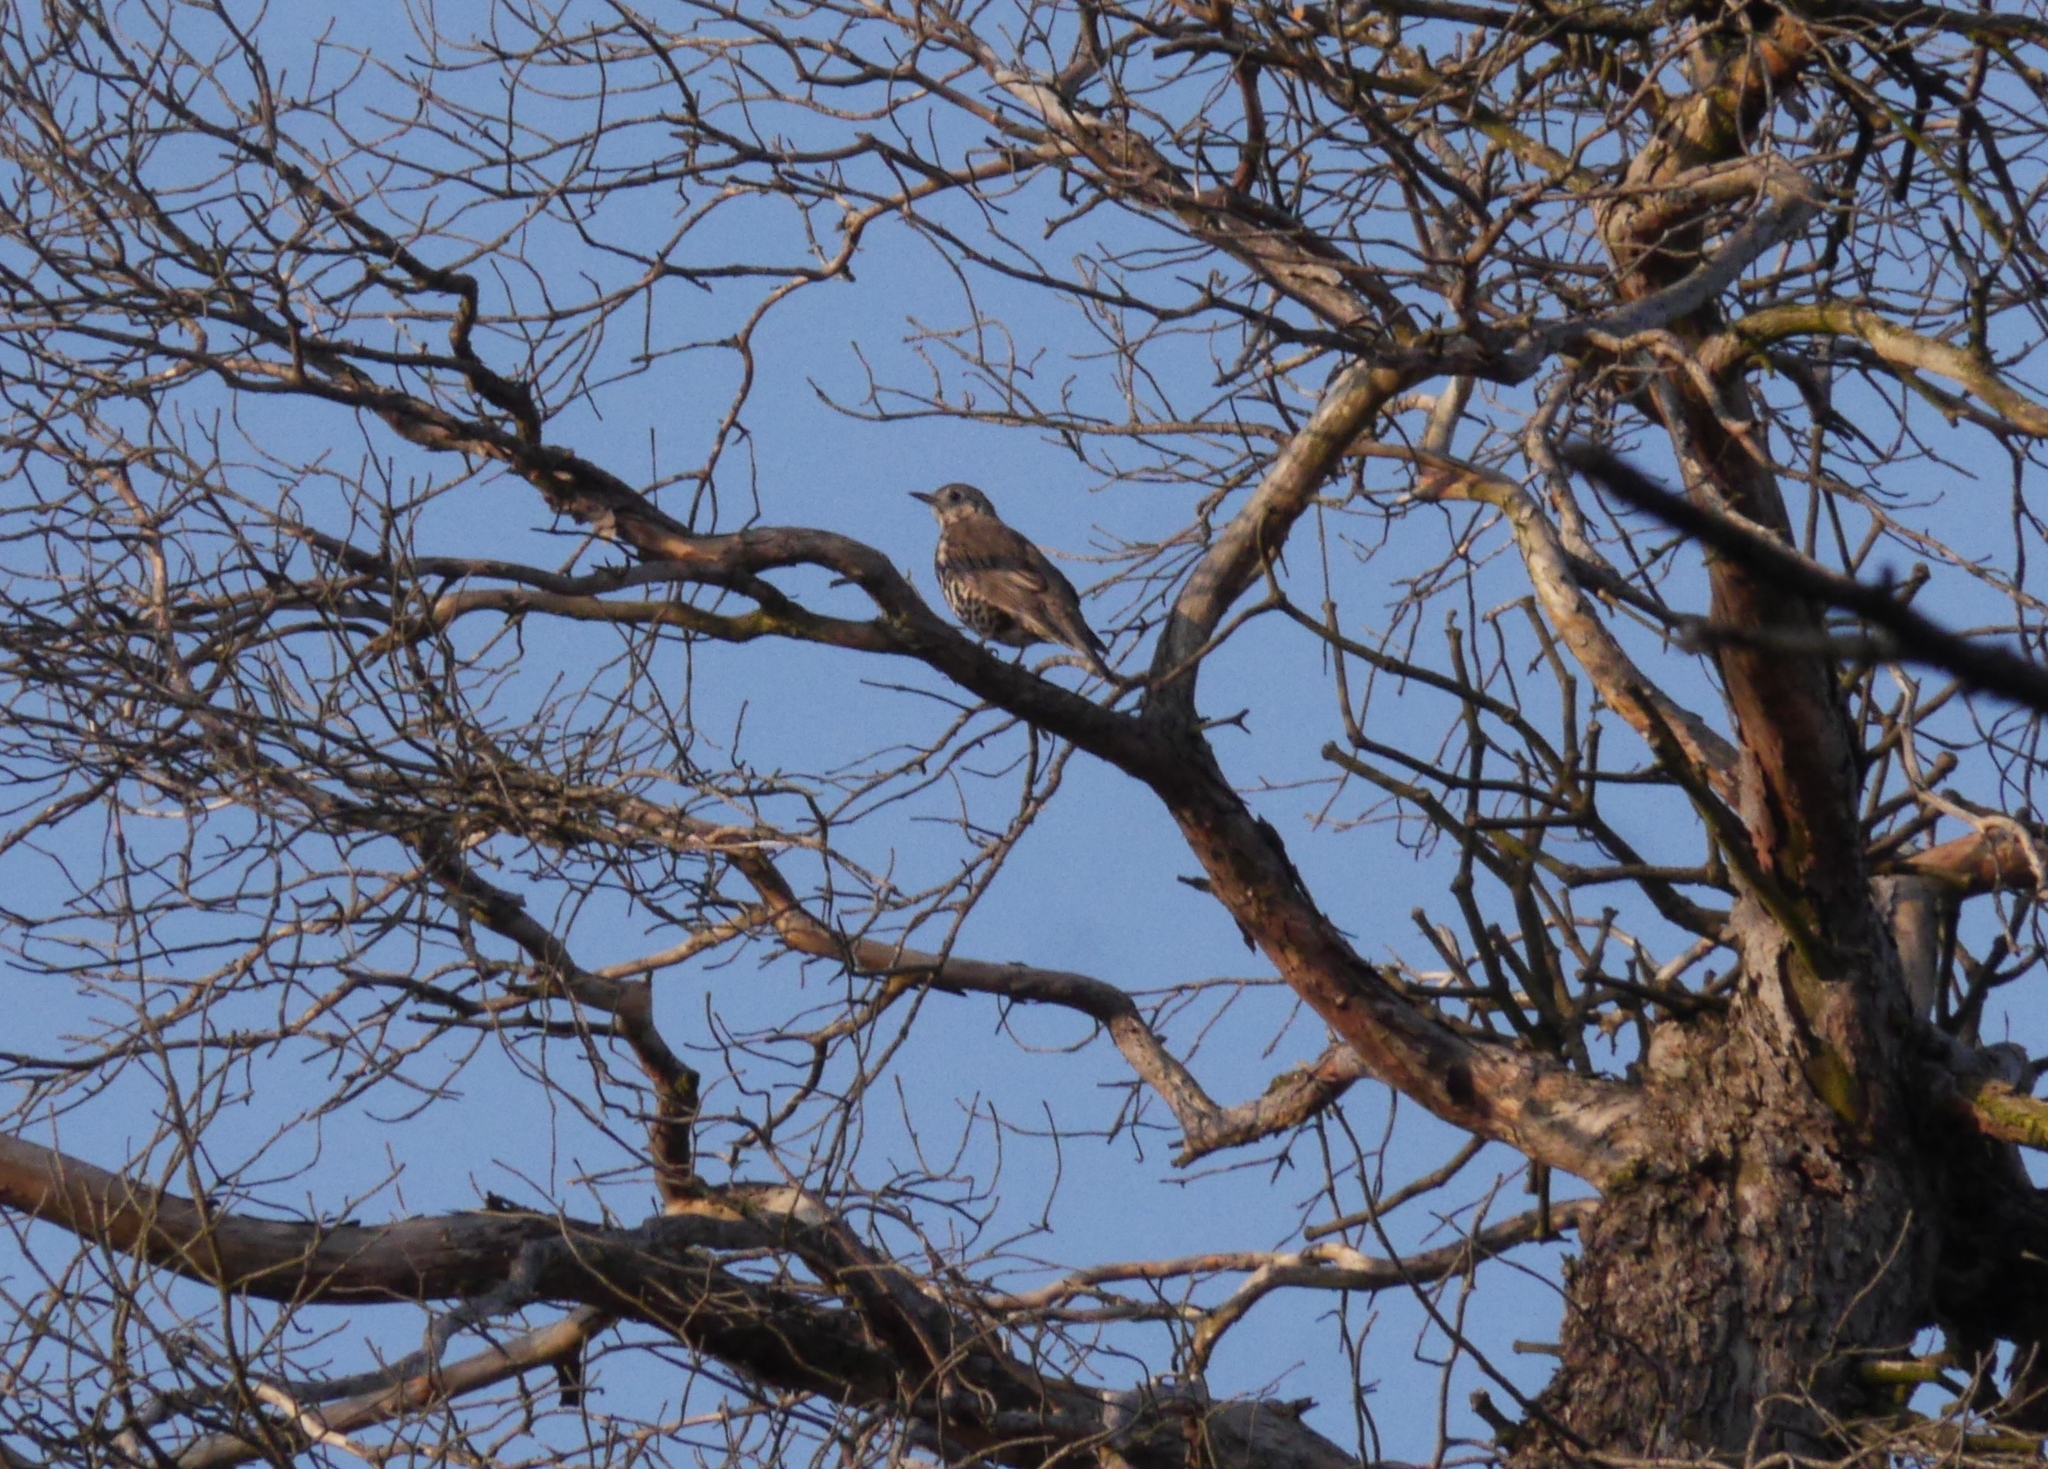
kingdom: Animalia
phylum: Chordata
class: Aves
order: Passeriformes
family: Turdidae
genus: Turdus
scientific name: Turdus viscivorus
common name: Mistle thrush
